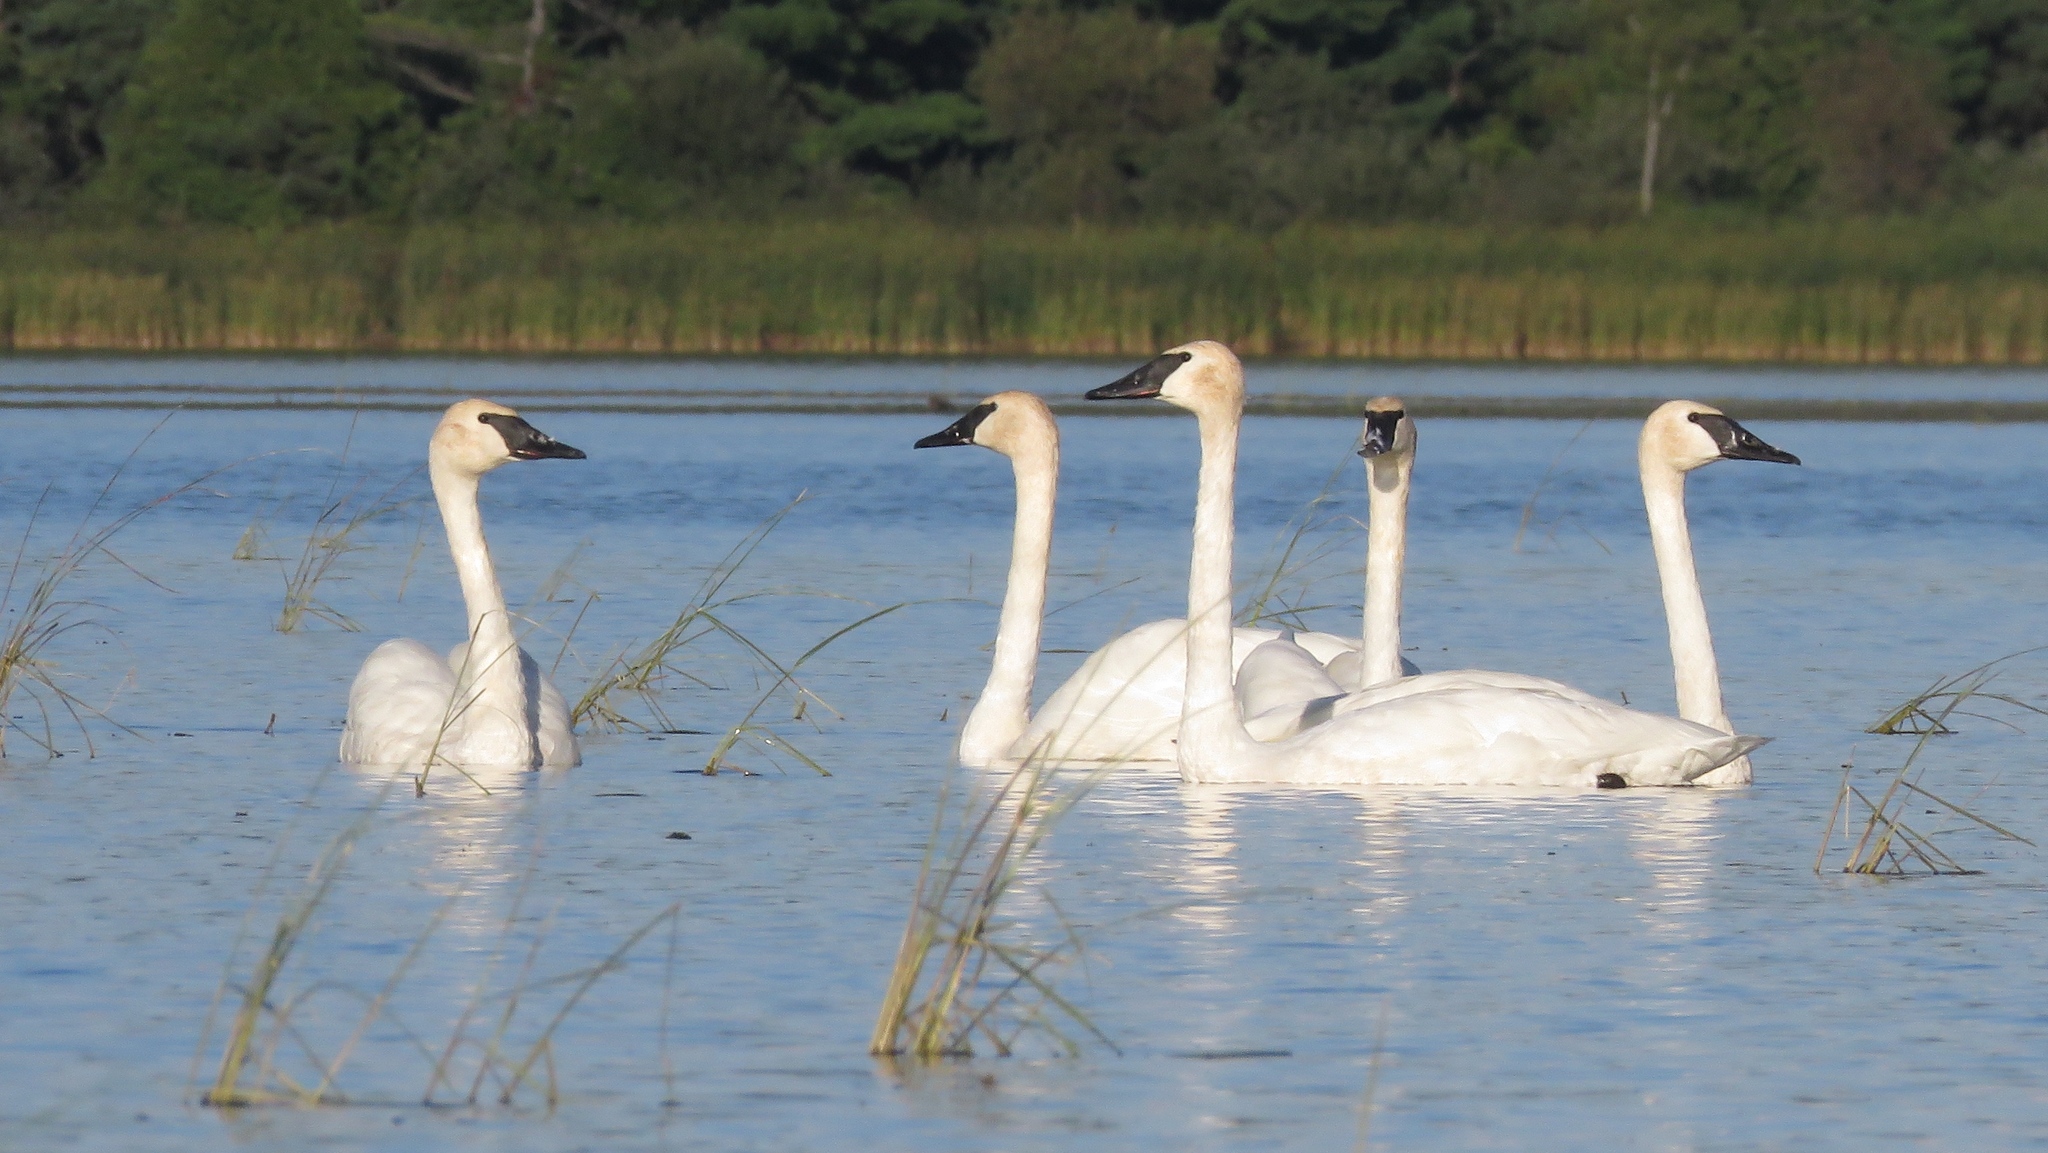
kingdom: Animalia
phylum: Chordata
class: Aves
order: Anseriformes
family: Anatidae
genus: Cygnus
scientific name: Cygnus buccinator
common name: Trumpeter swan
